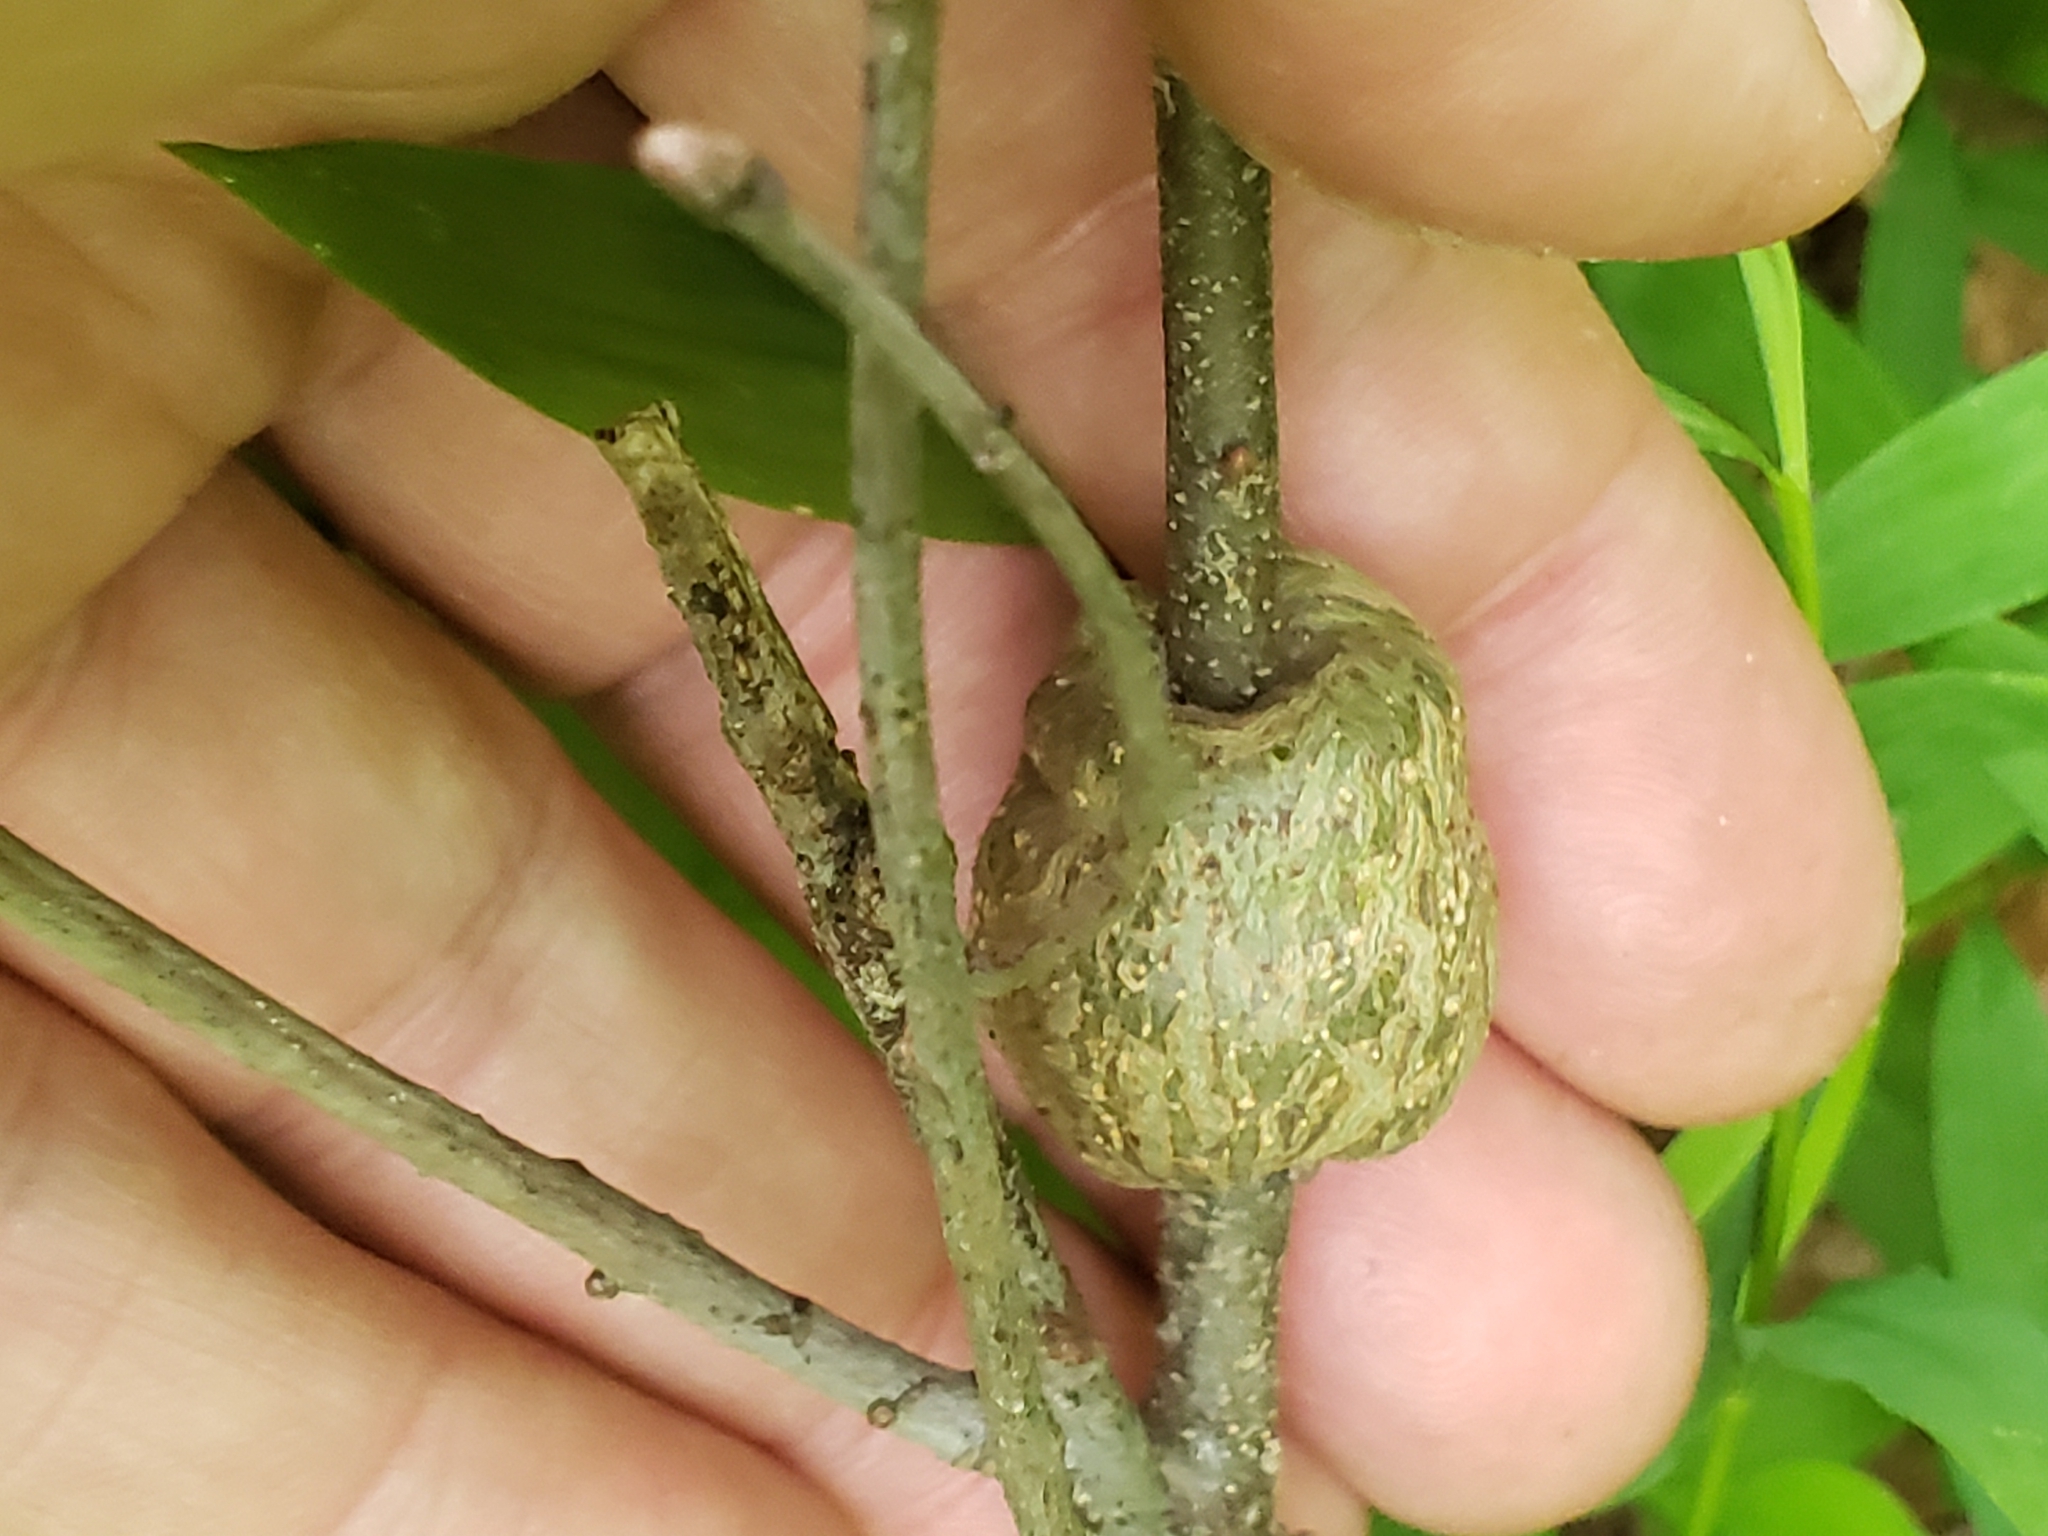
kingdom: Animalia
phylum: Arthropoda
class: Insecta
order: Hymenoptera
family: Cynipidae
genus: Callirhytis
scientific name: Callirhytis
